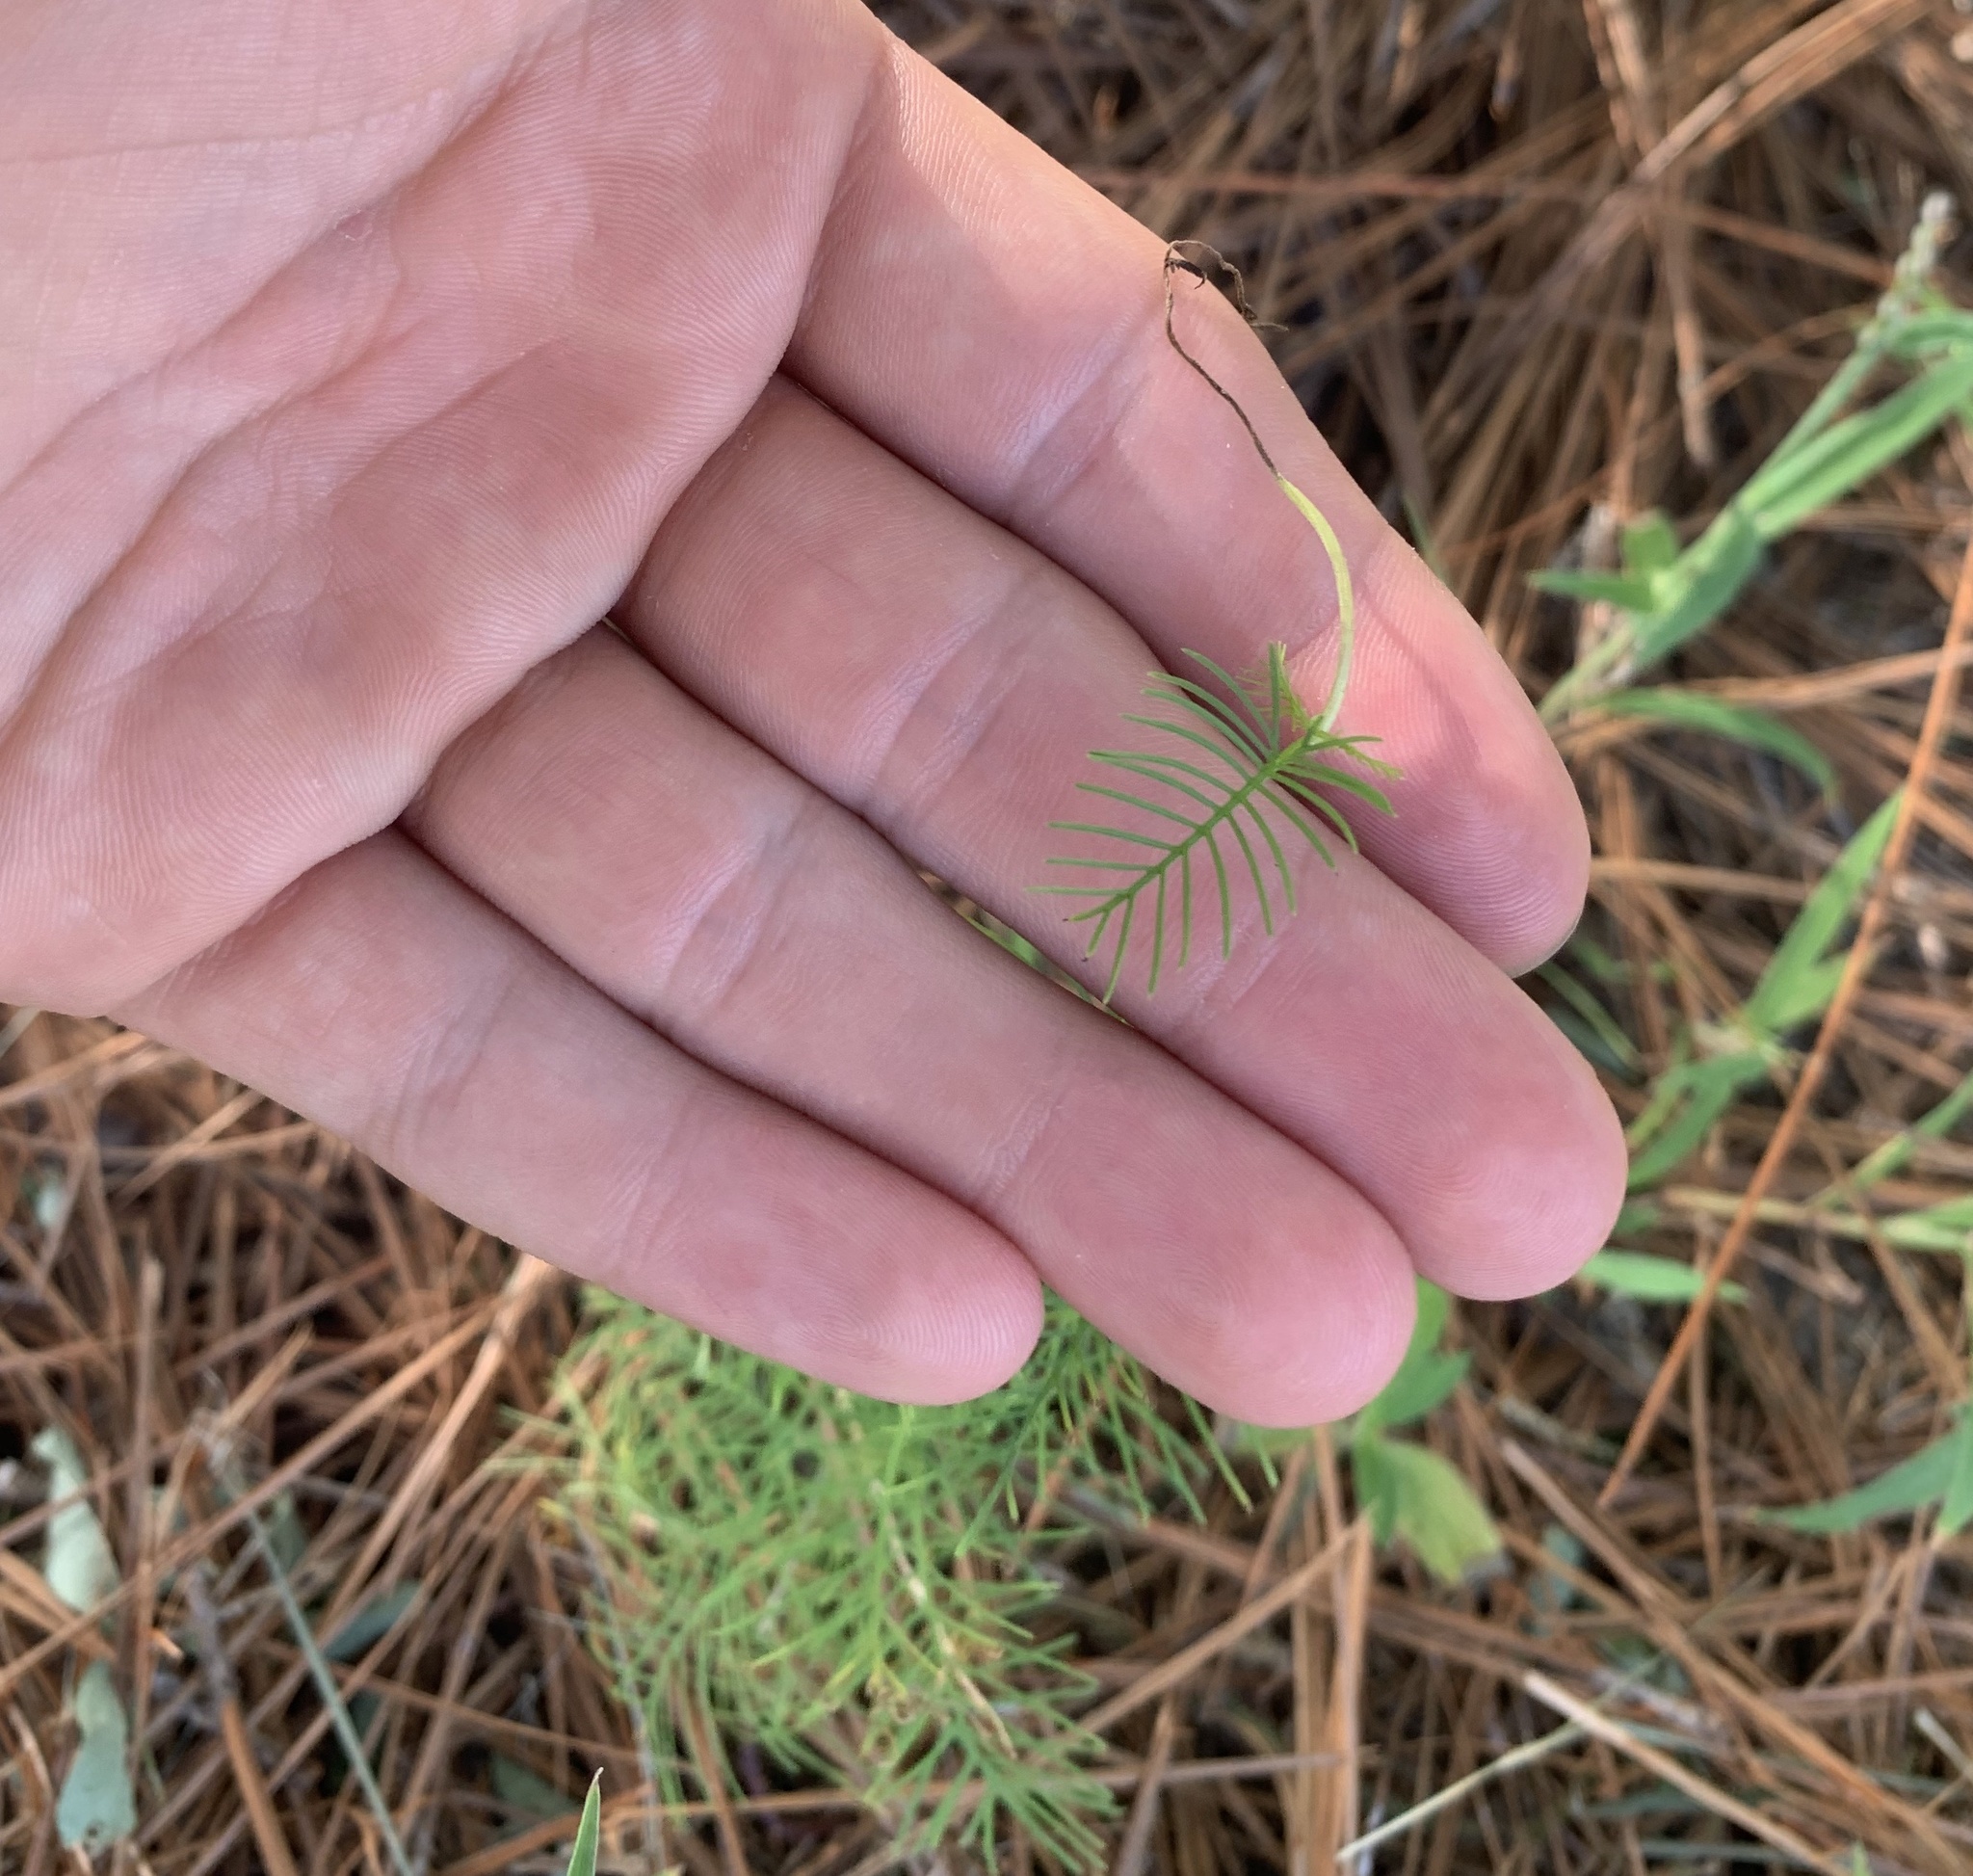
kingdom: Plantae
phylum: Tracheophyta
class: Magnoliopsida
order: Solanales
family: Convolvulaceae
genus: Ipomoea
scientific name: Ipomoea quamoclit
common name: Cypress vine
